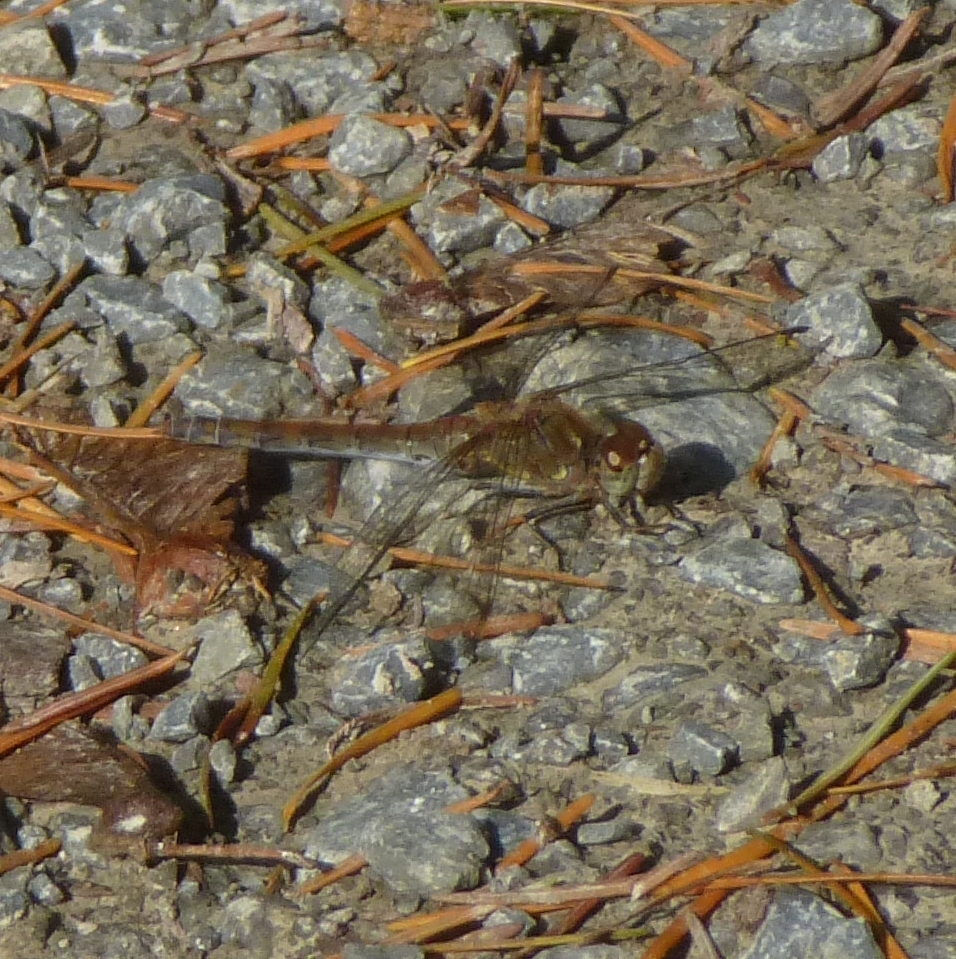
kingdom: Animalia
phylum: Arthropoda
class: Insecta
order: Odonata
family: Libellulidae
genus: Sympetrum
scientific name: Sympetrum striolatum
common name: Common darter
